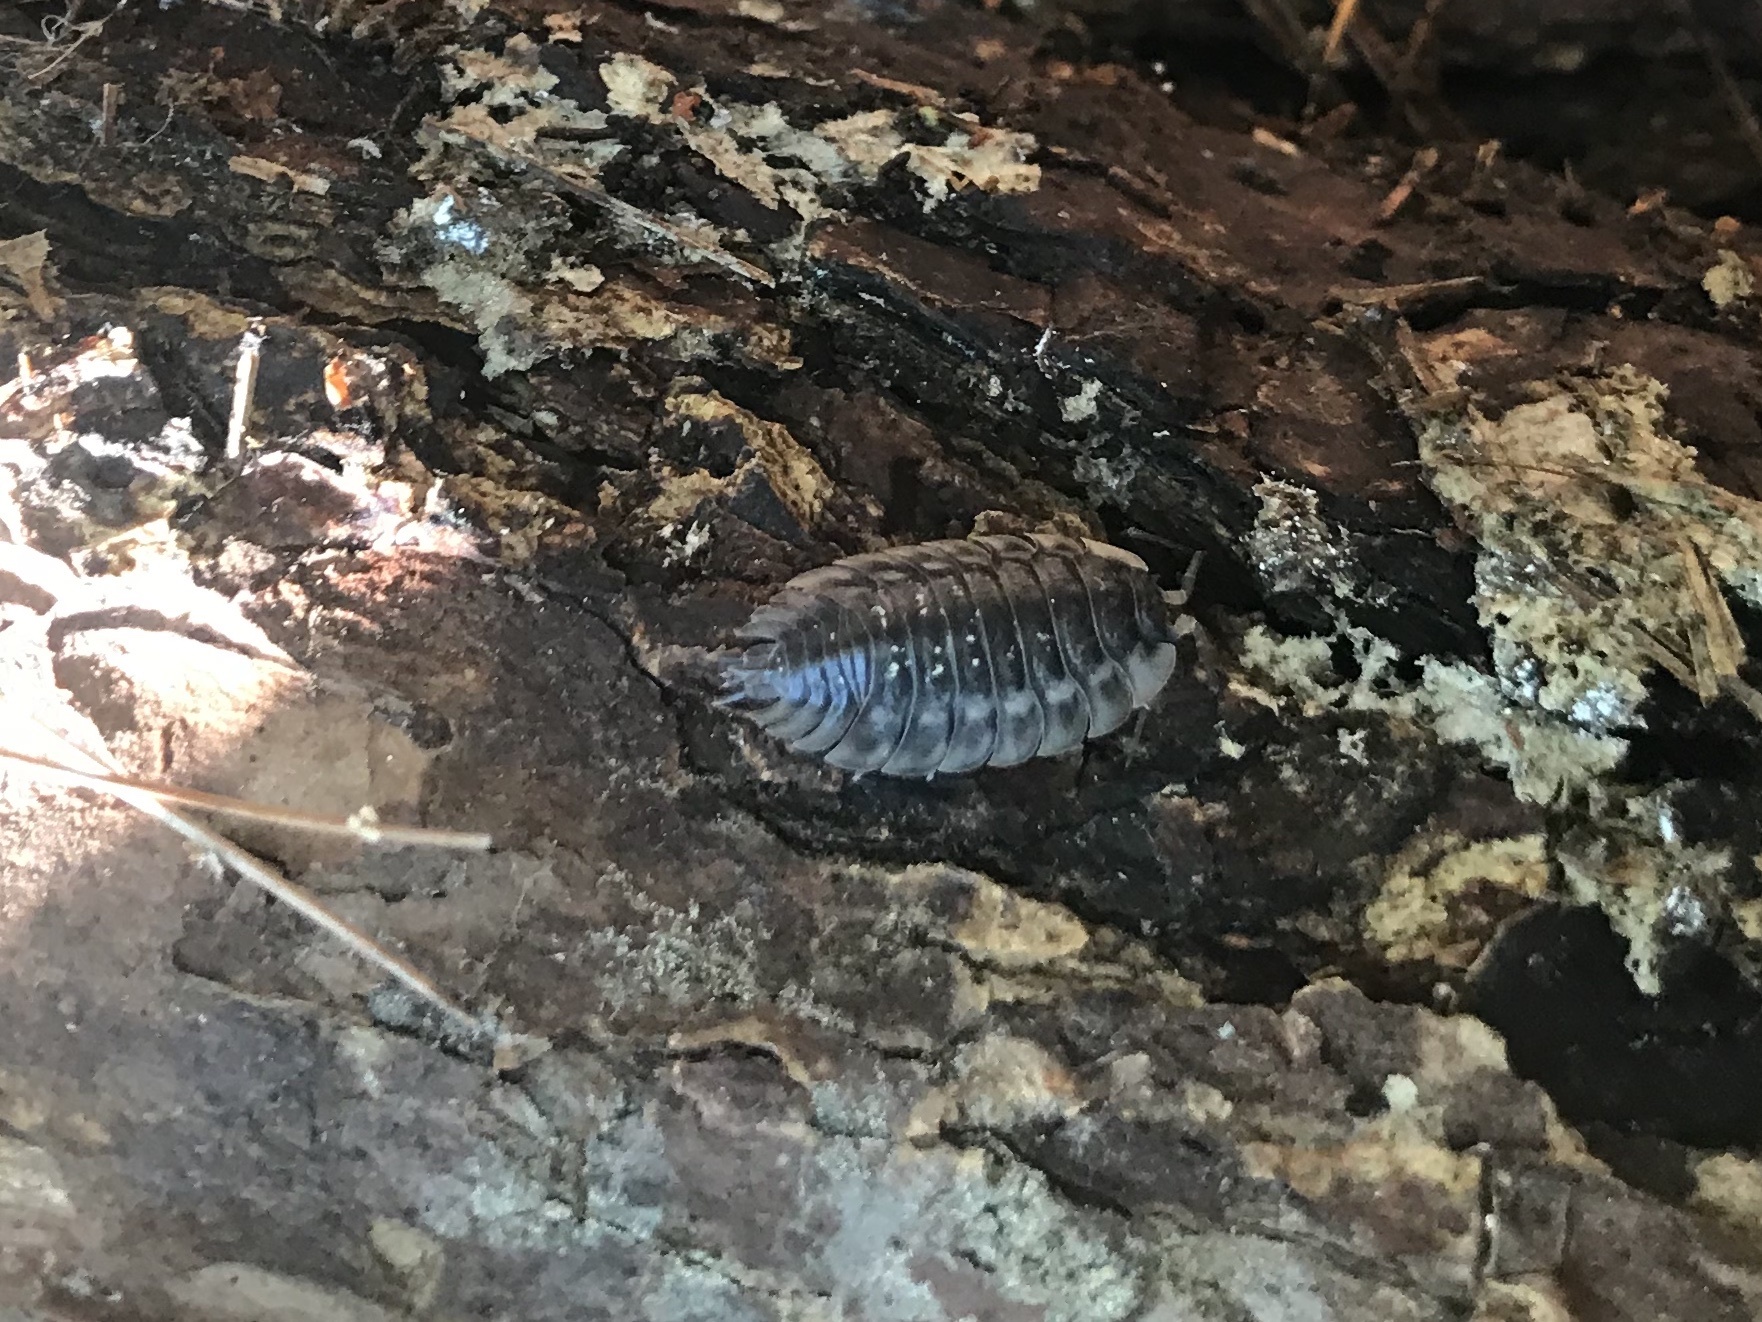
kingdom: Animalia
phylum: Arthropoda
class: Malacostraca
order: Isopoda
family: Oniscidae
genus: Oniscus
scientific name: Oniscus asellus
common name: Common shiny woodlouse
